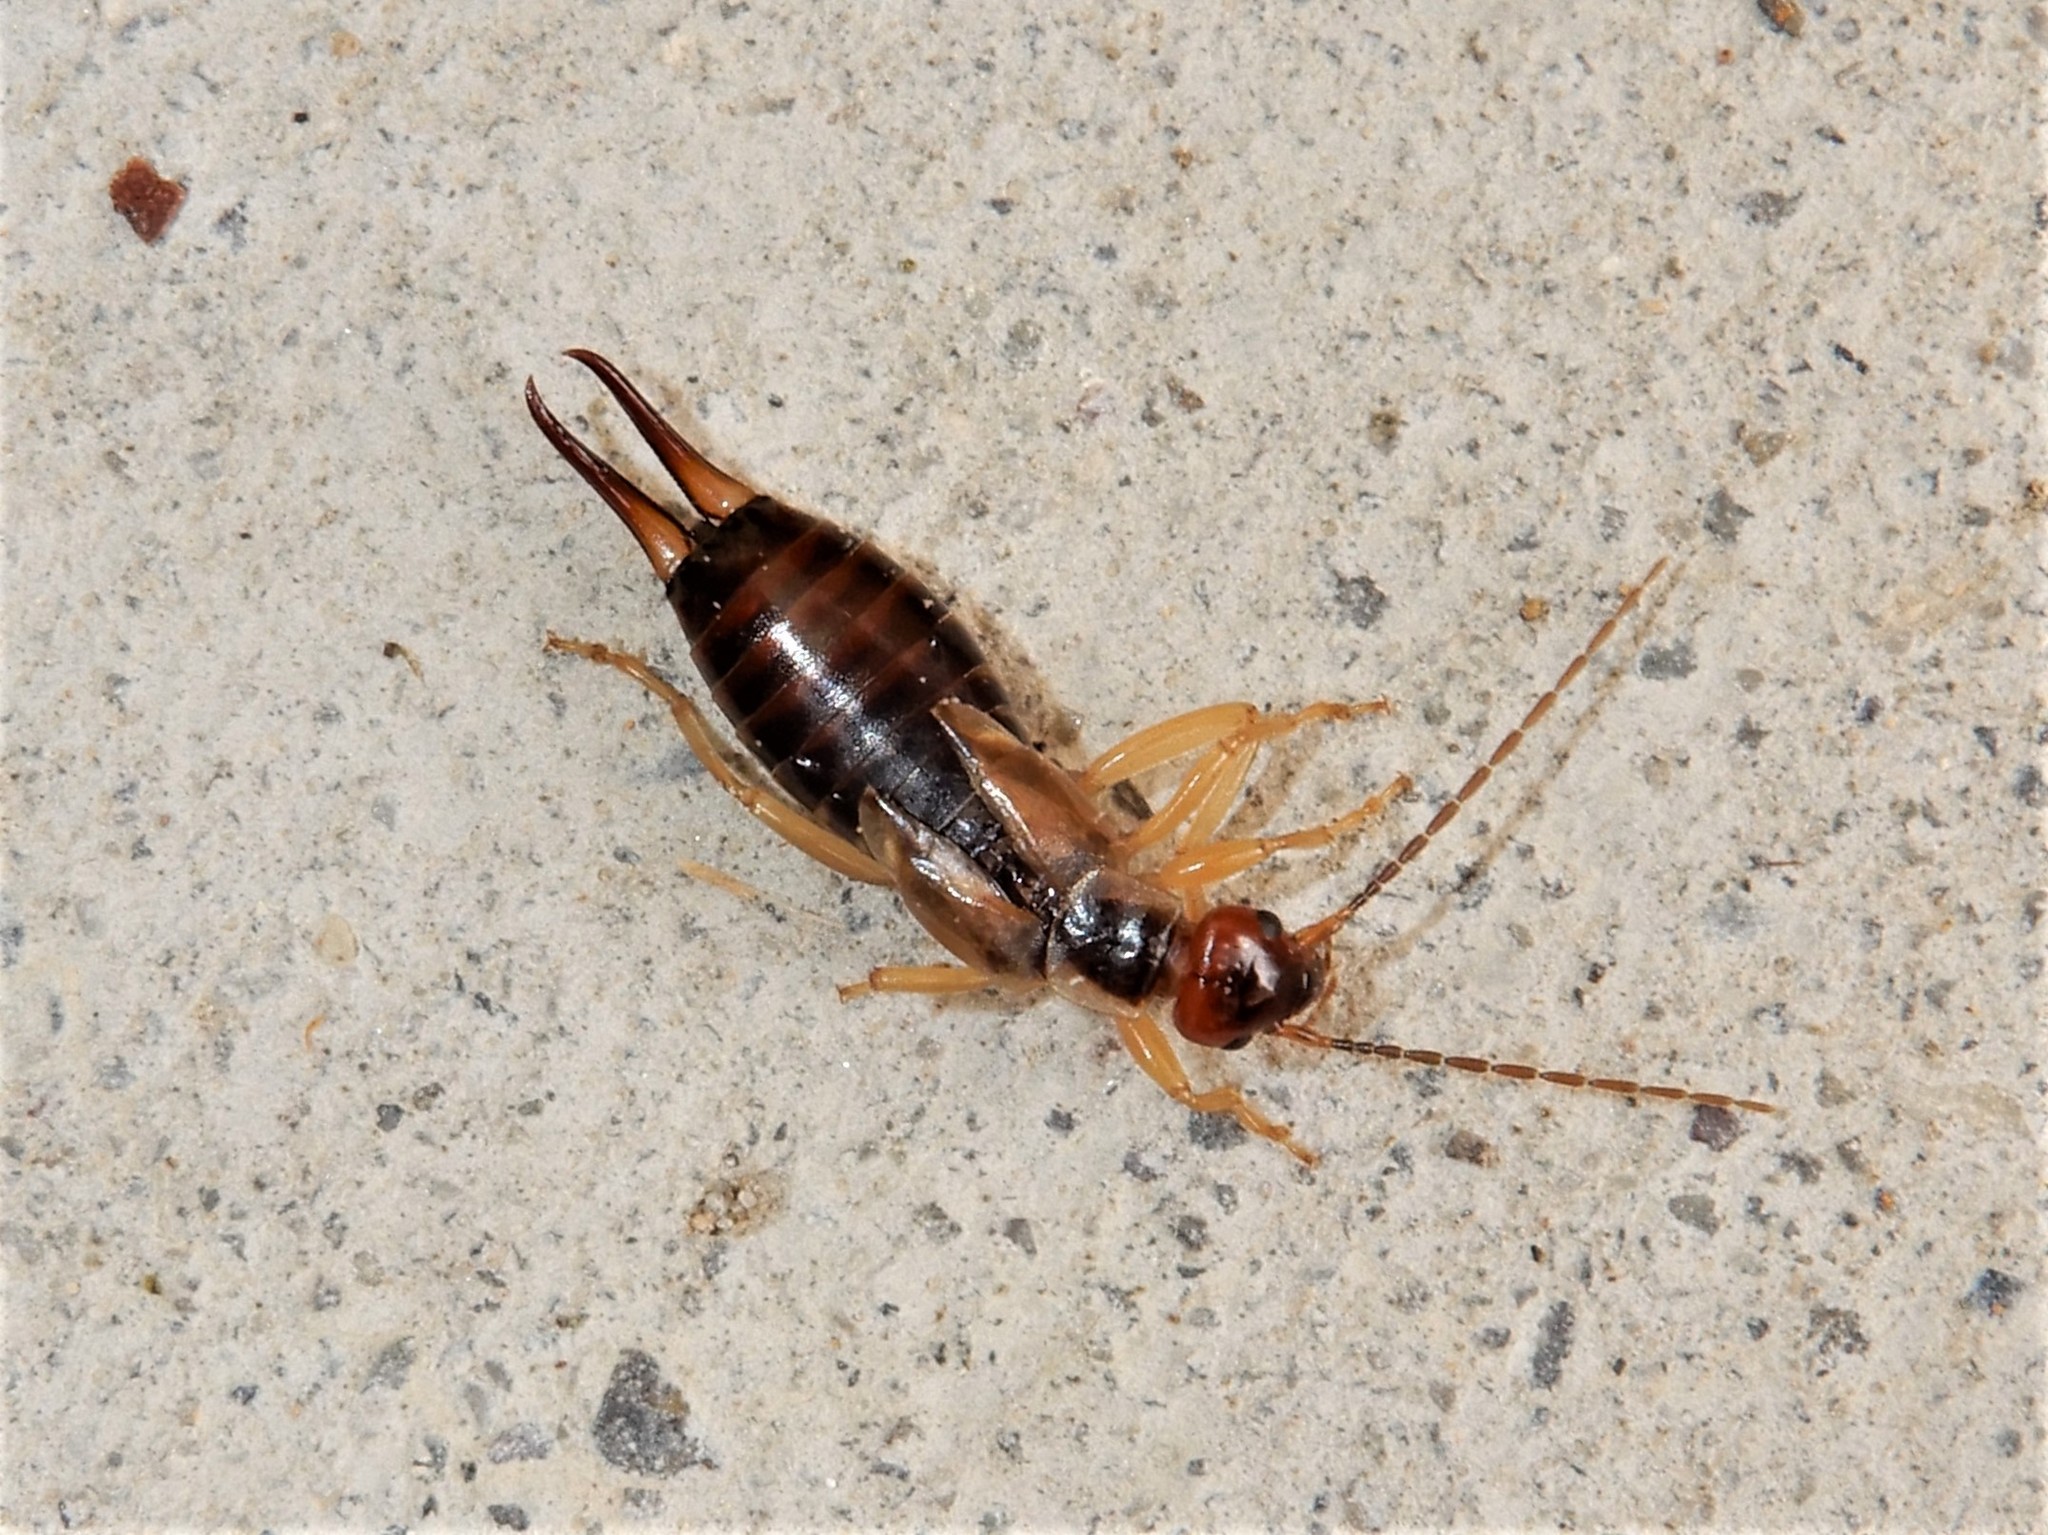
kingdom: Animalia
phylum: Arthropoda
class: Insecta
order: Dermaptera
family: Forficulidae
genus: Forficula
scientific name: Forficula
